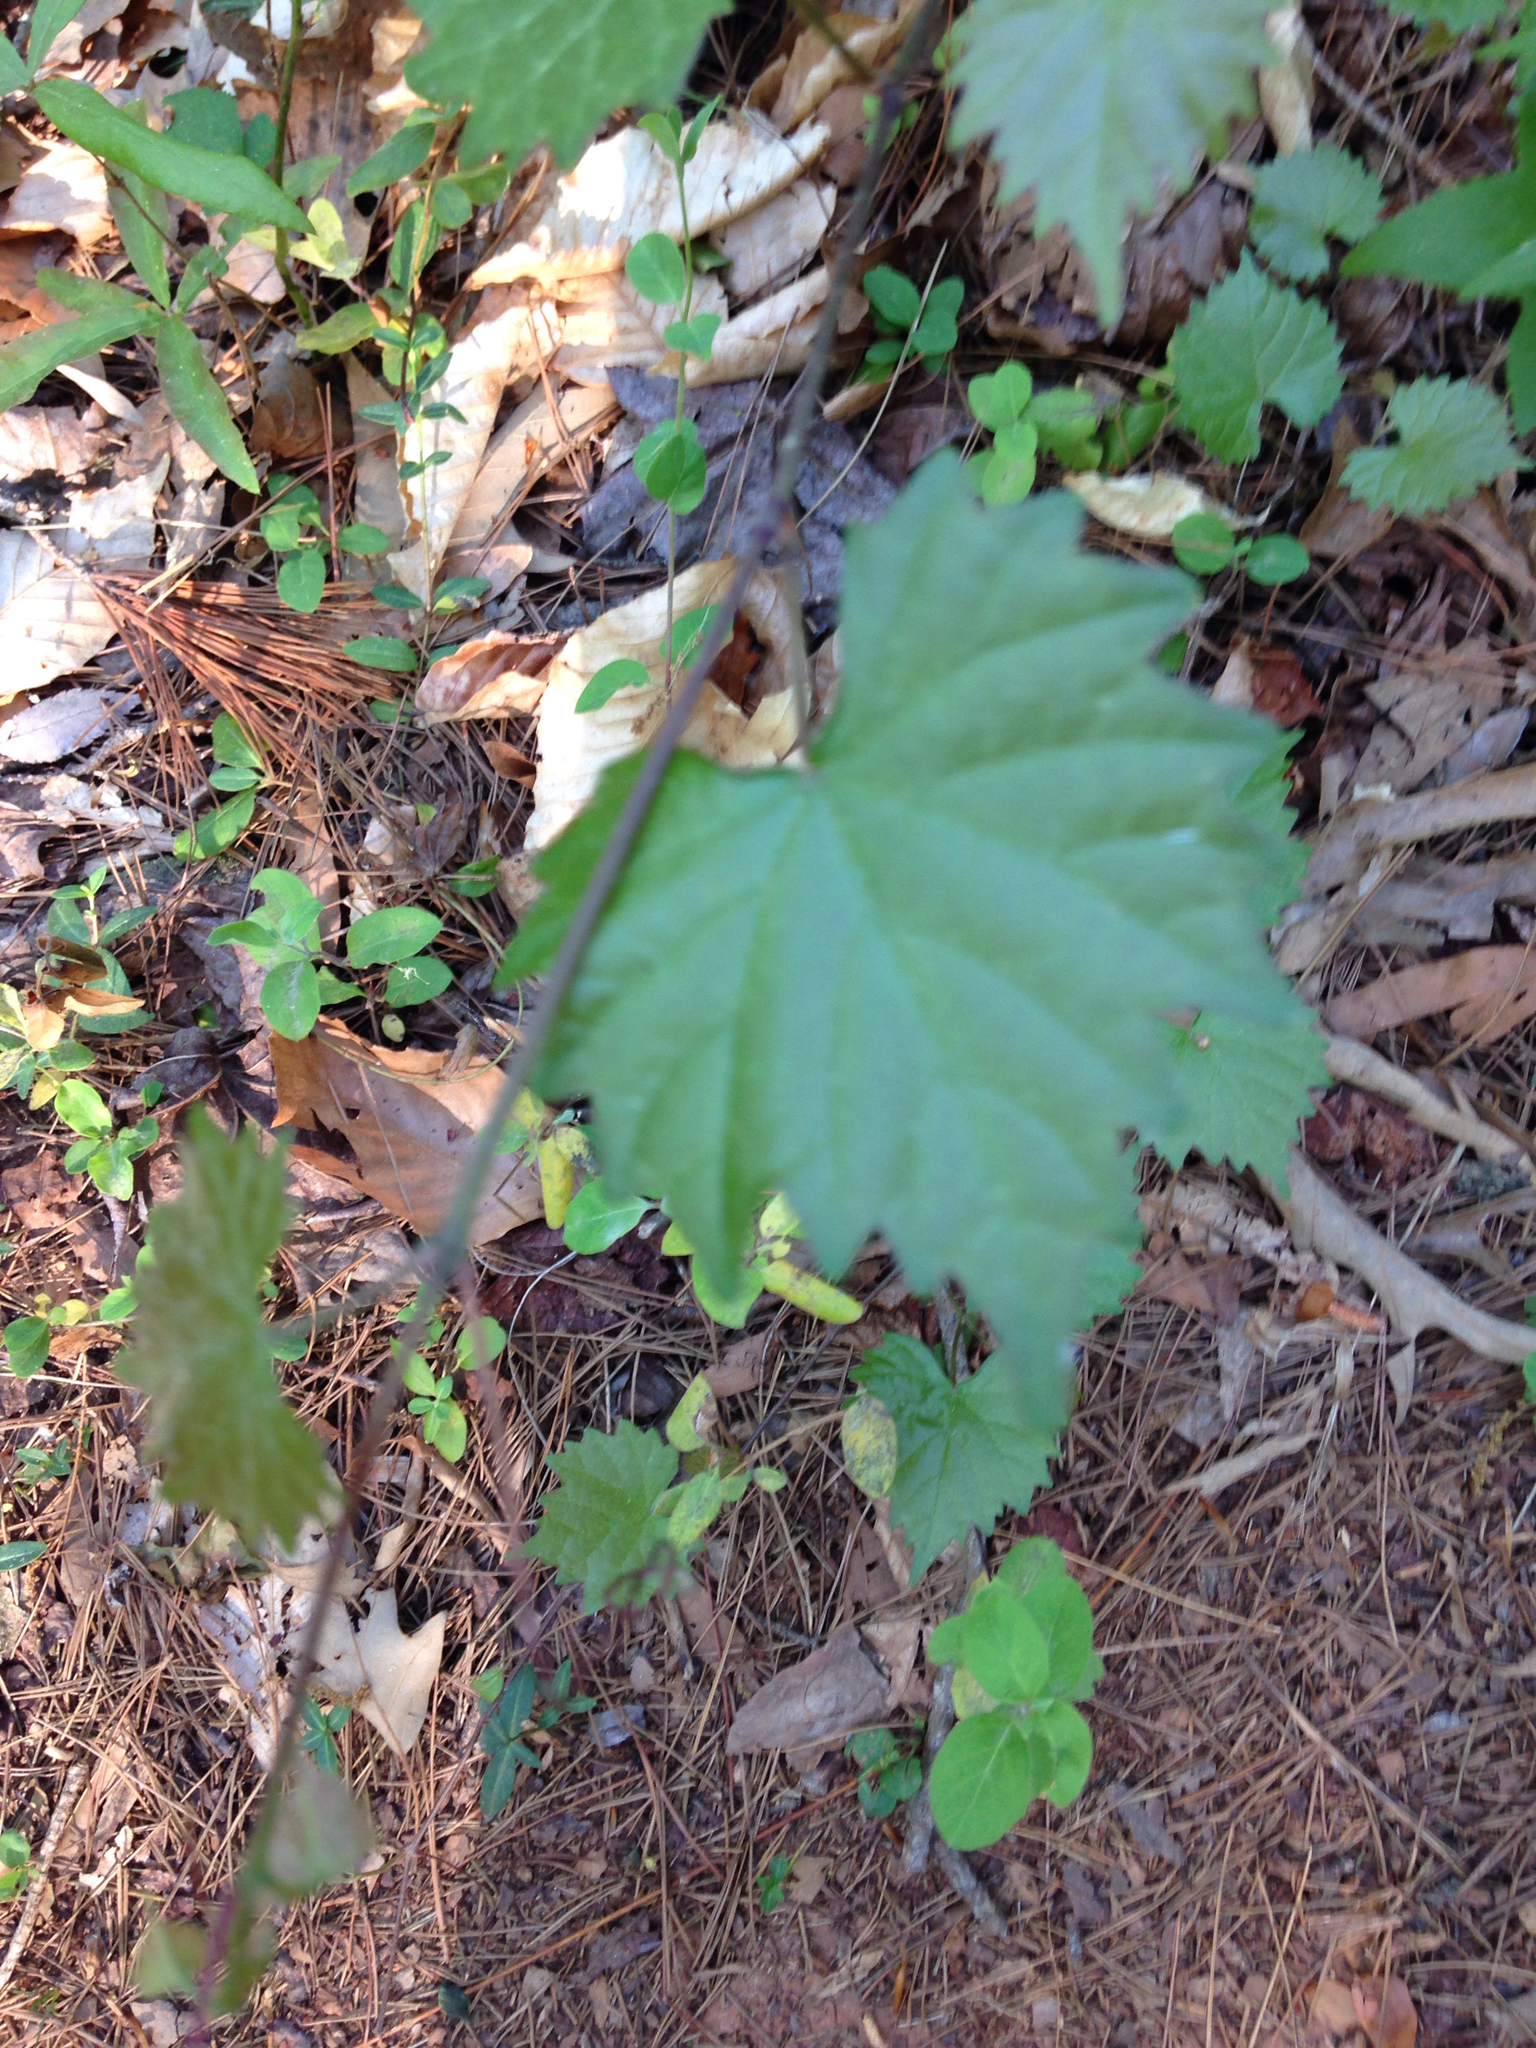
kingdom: Plantae
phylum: Tracheophyta
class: Magnoliopsida
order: Vitales
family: Vitaceae
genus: Vitis
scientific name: Vitis rotundifolia
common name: Muscadine grape
